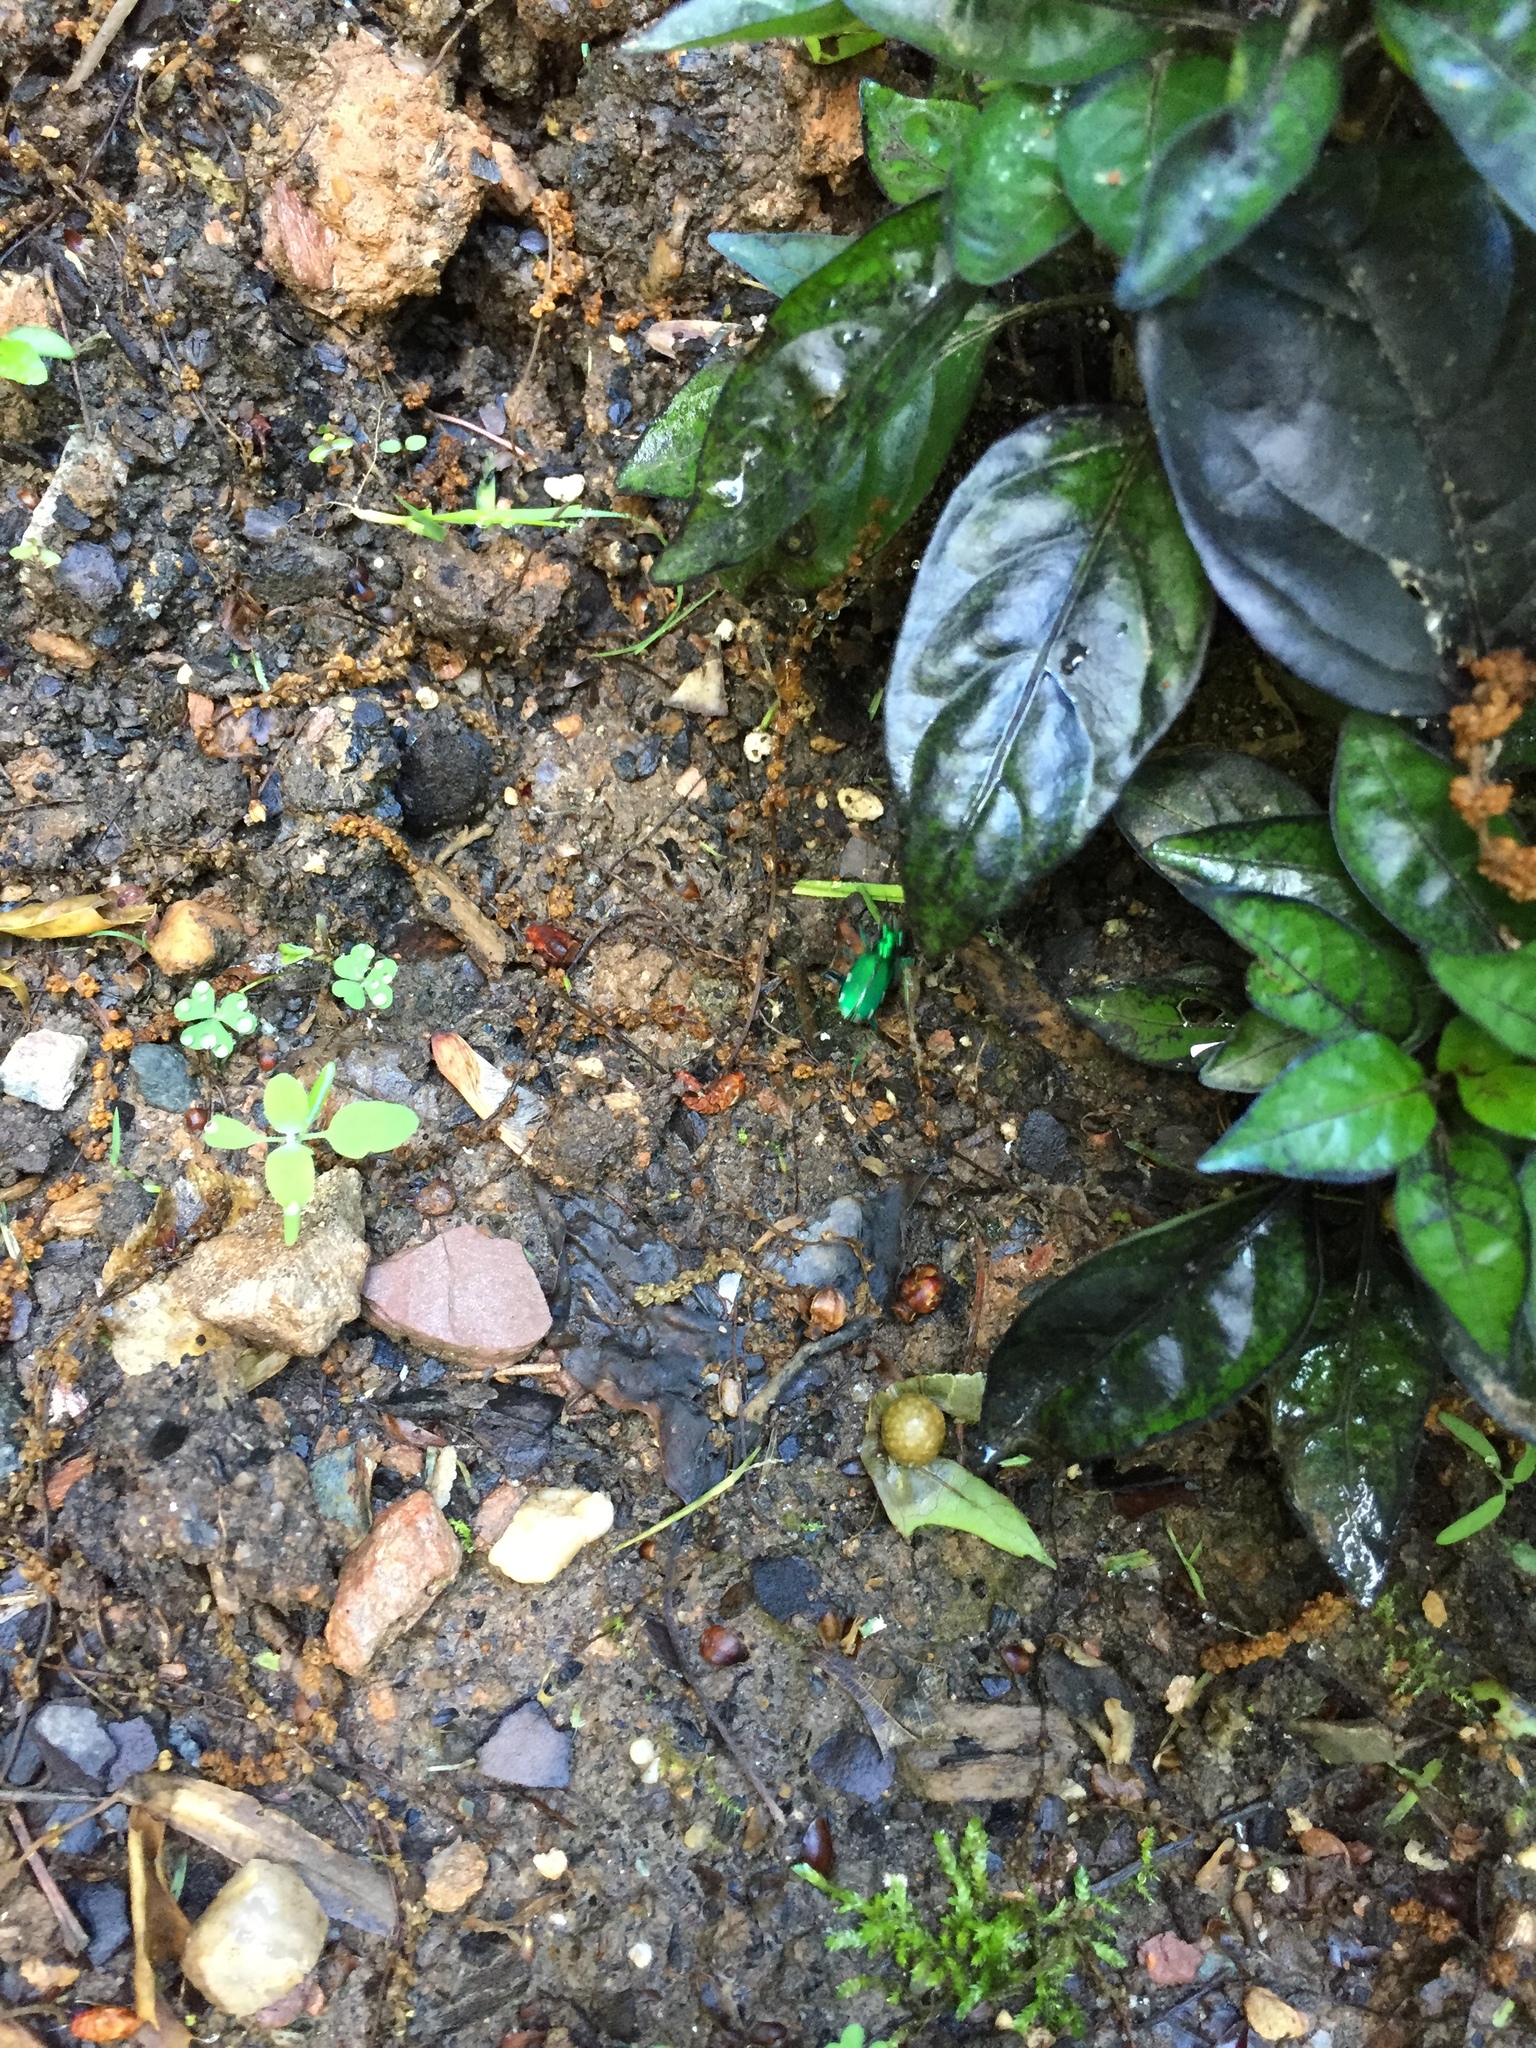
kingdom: Animalia
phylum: Arthropoda
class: Insecta
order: Coleoptera
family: Carabidae
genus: Cicindela
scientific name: Cicindela sexguttata
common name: Six-spotted tiger beetle
